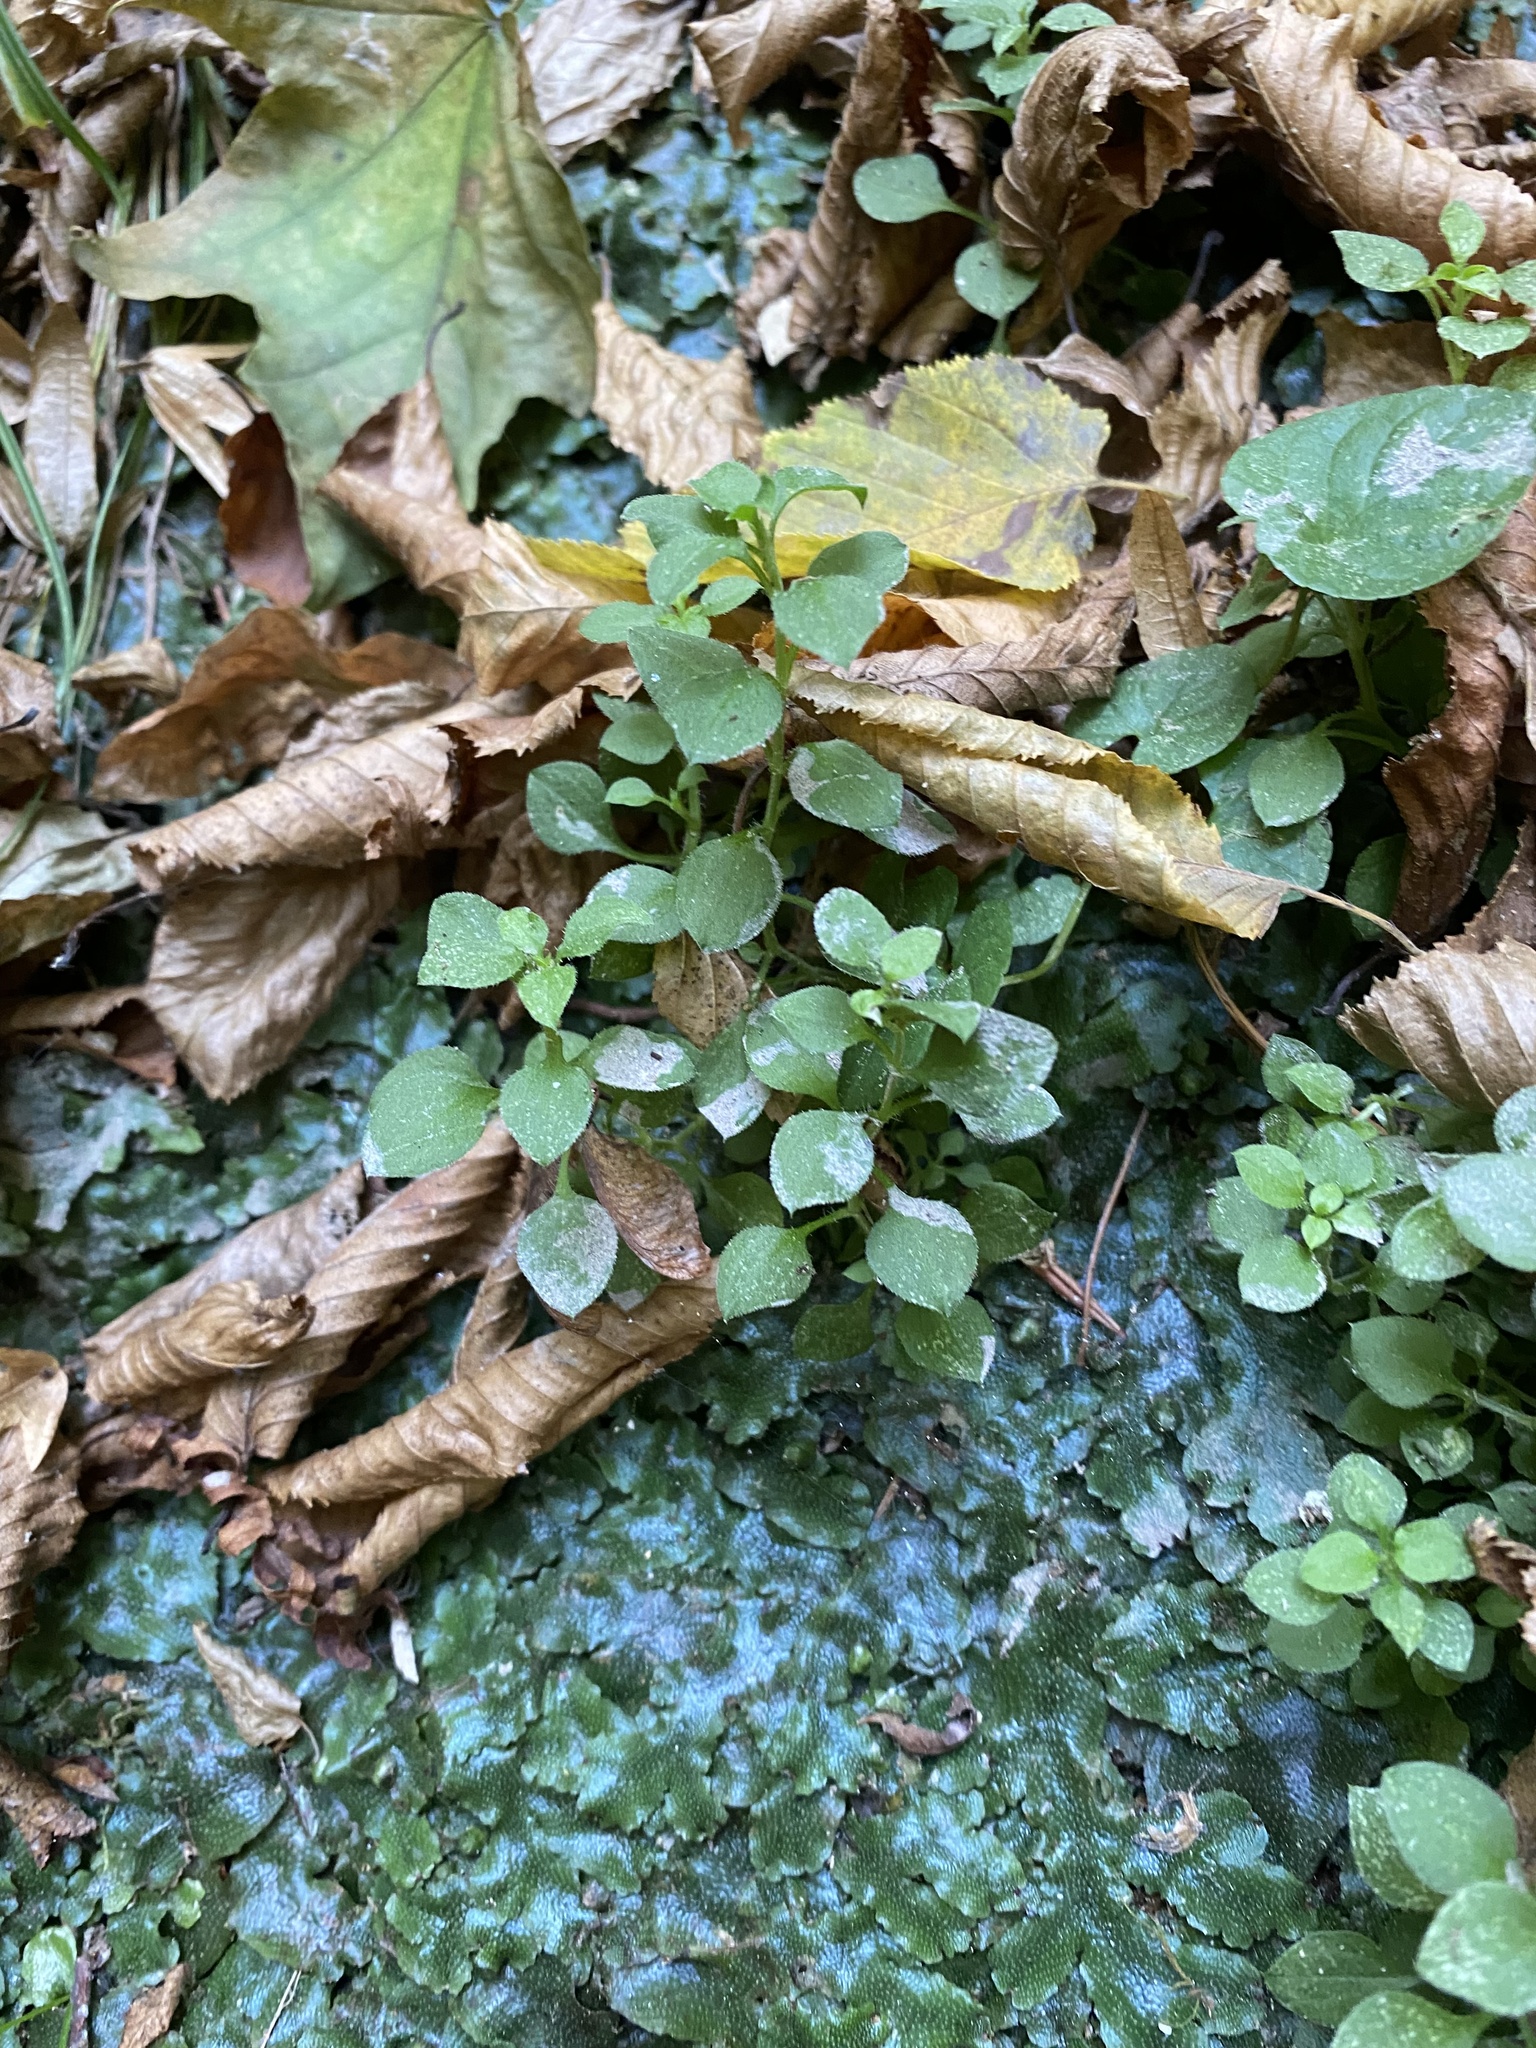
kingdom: Plantae
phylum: Tracheophyta
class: Magnoliopsida
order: Caryophyllales
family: Caryophyllaceae
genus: Moehringia
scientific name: Moehringia trinervia
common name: Three-nerved sandwort
